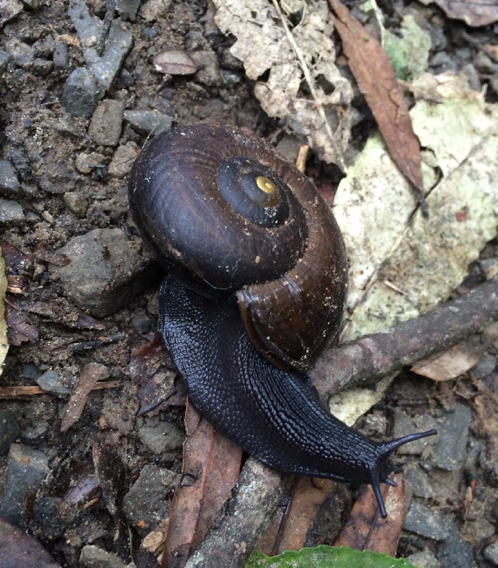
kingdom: Animalia
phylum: Mollusca
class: Gastropoda
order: Stylommatophora
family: Rhytididae
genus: Powelliphanta
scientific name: Powelliphanta traversi
